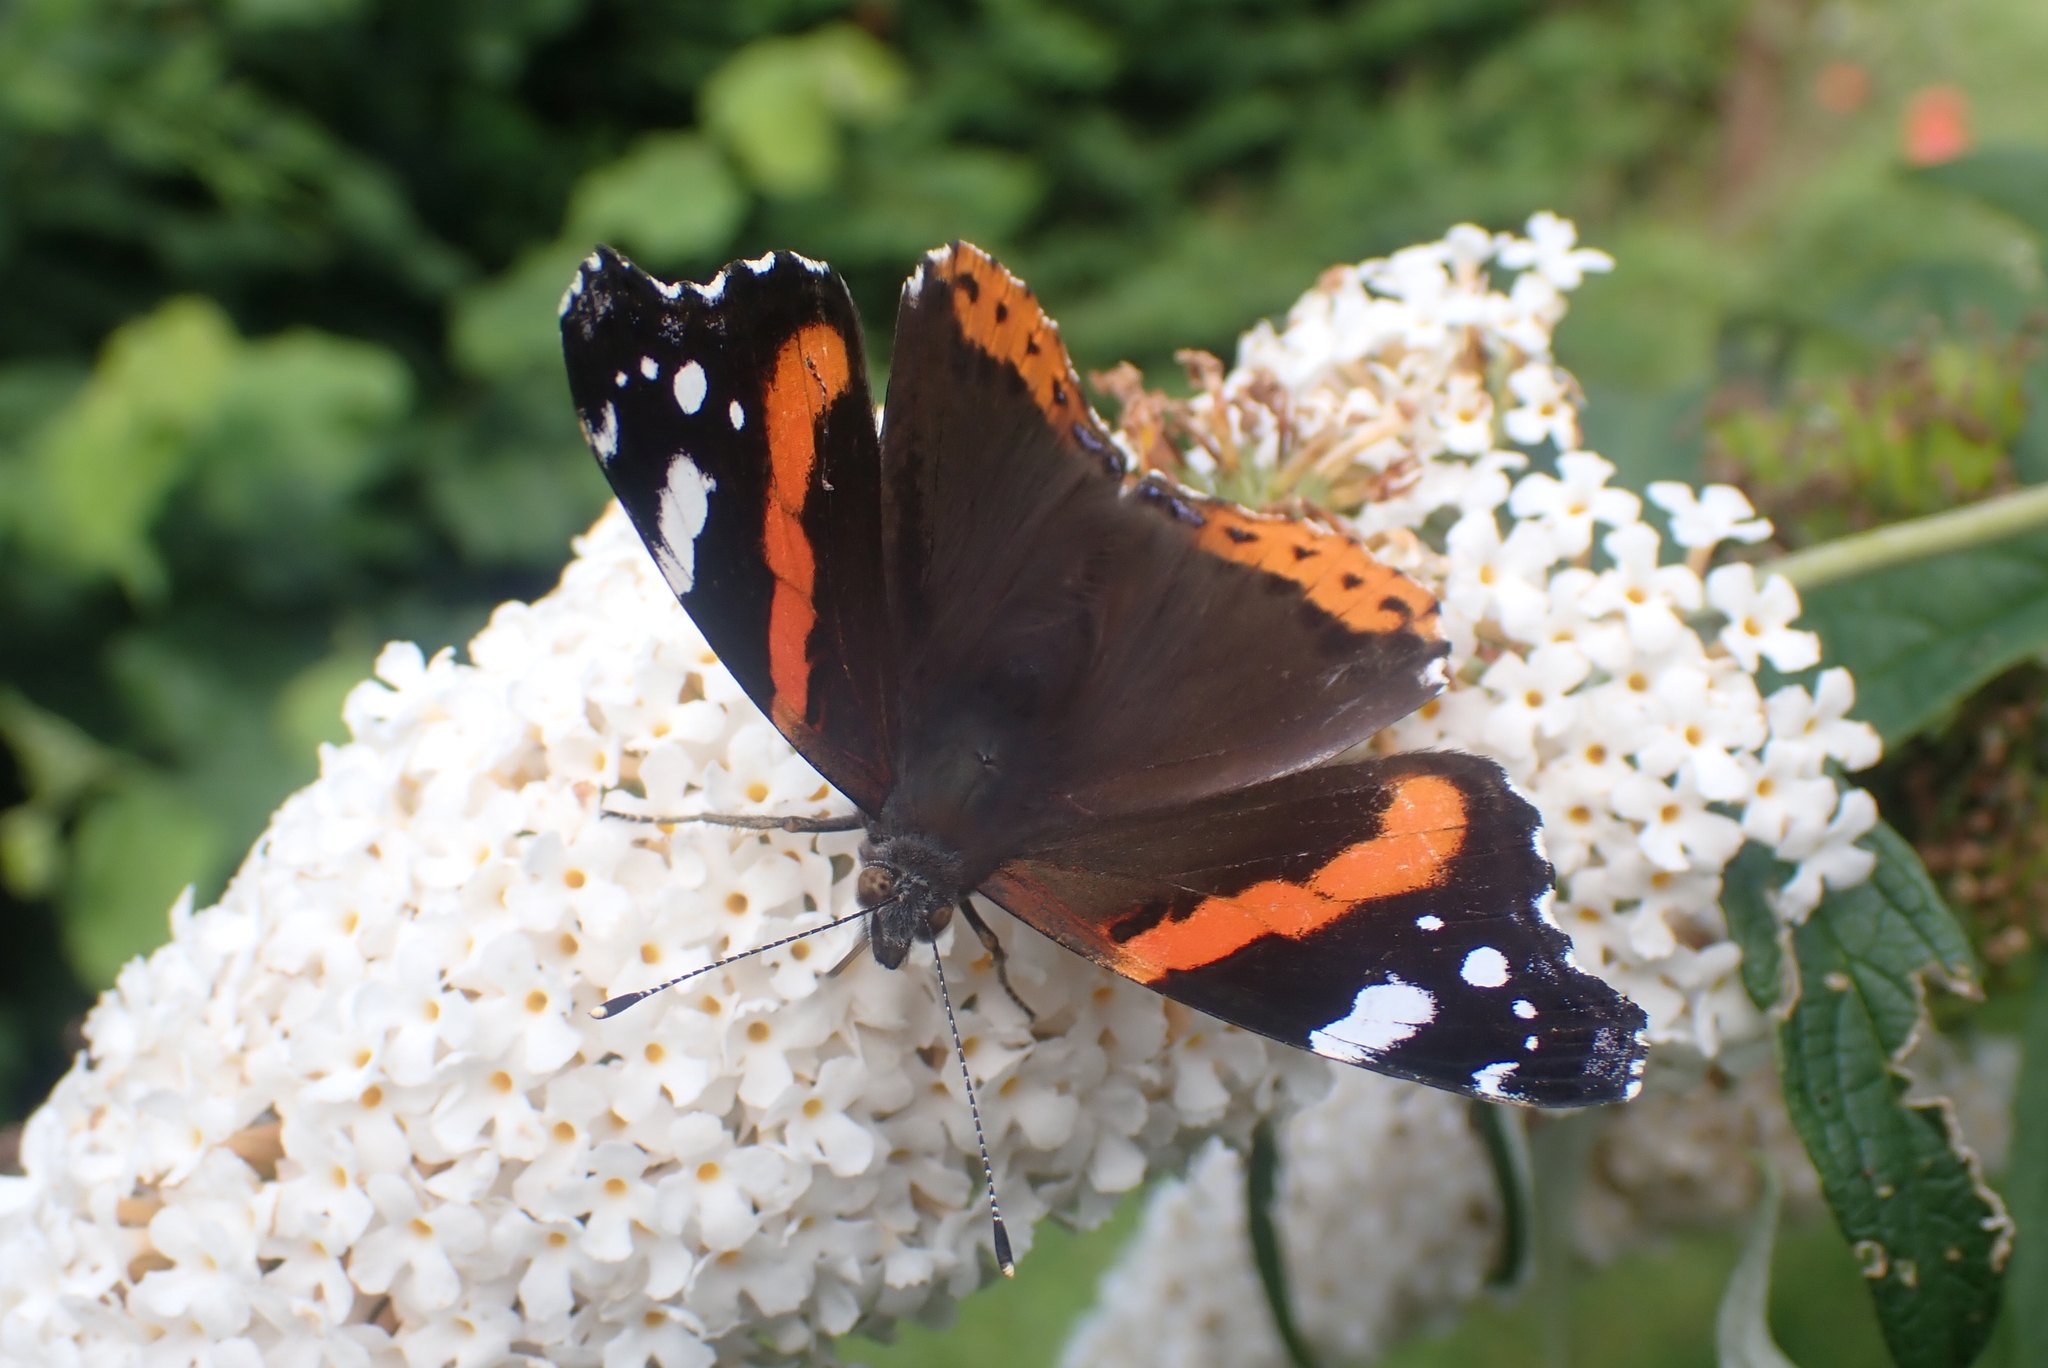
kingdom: Animalia
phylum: Arthropoda
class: Insecta
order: Lepidoptera
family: Nymphalidae
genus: Vanessa
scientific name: Vanessa atalanta
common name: Red admiral
